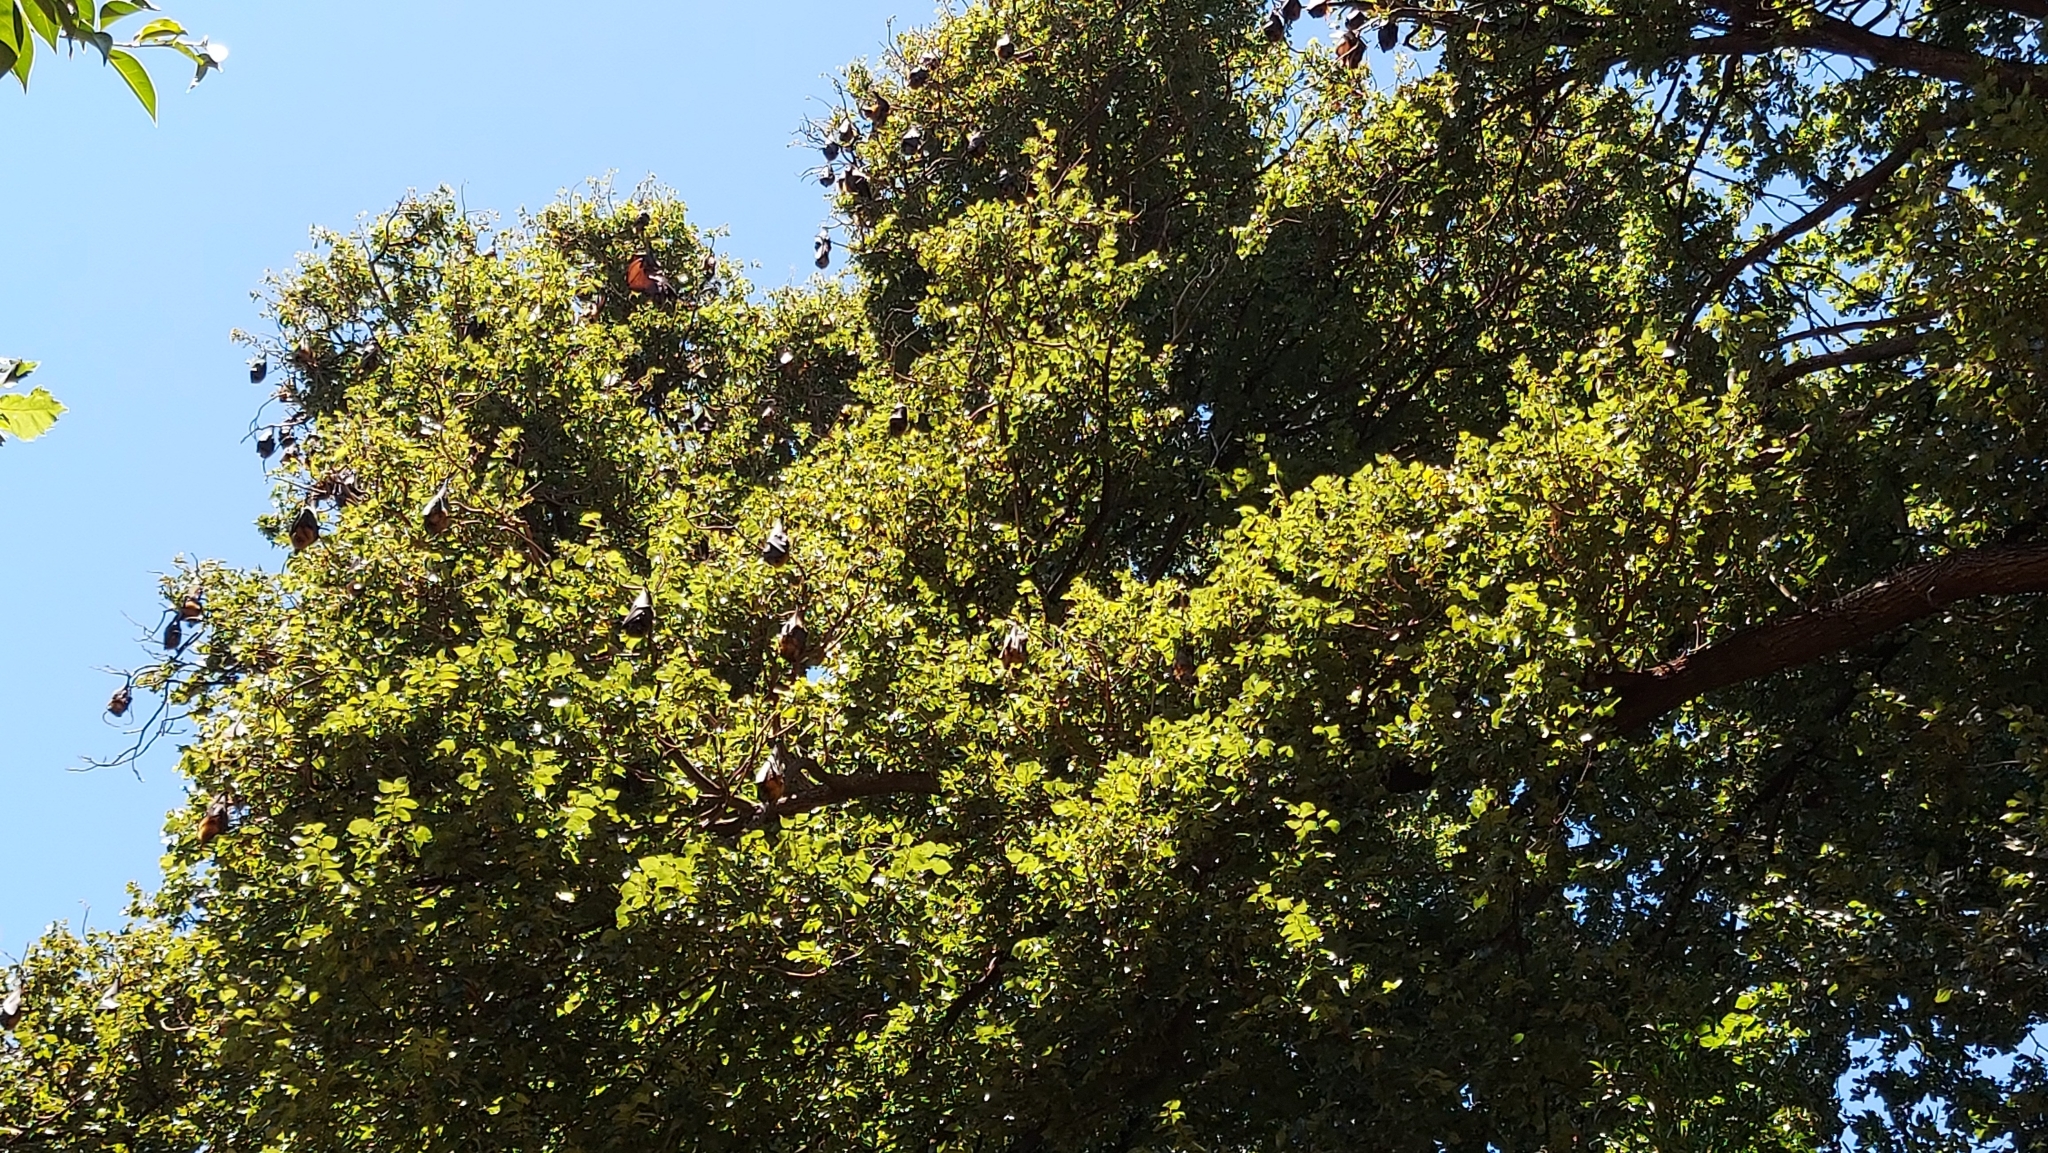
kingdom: Animalia
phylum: Chordata
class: Mammalia
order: Chiroptera
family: Pteropodidae
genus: Pteropus
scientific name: Pteropus poliocephalus
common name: Gray-headed flying fox
